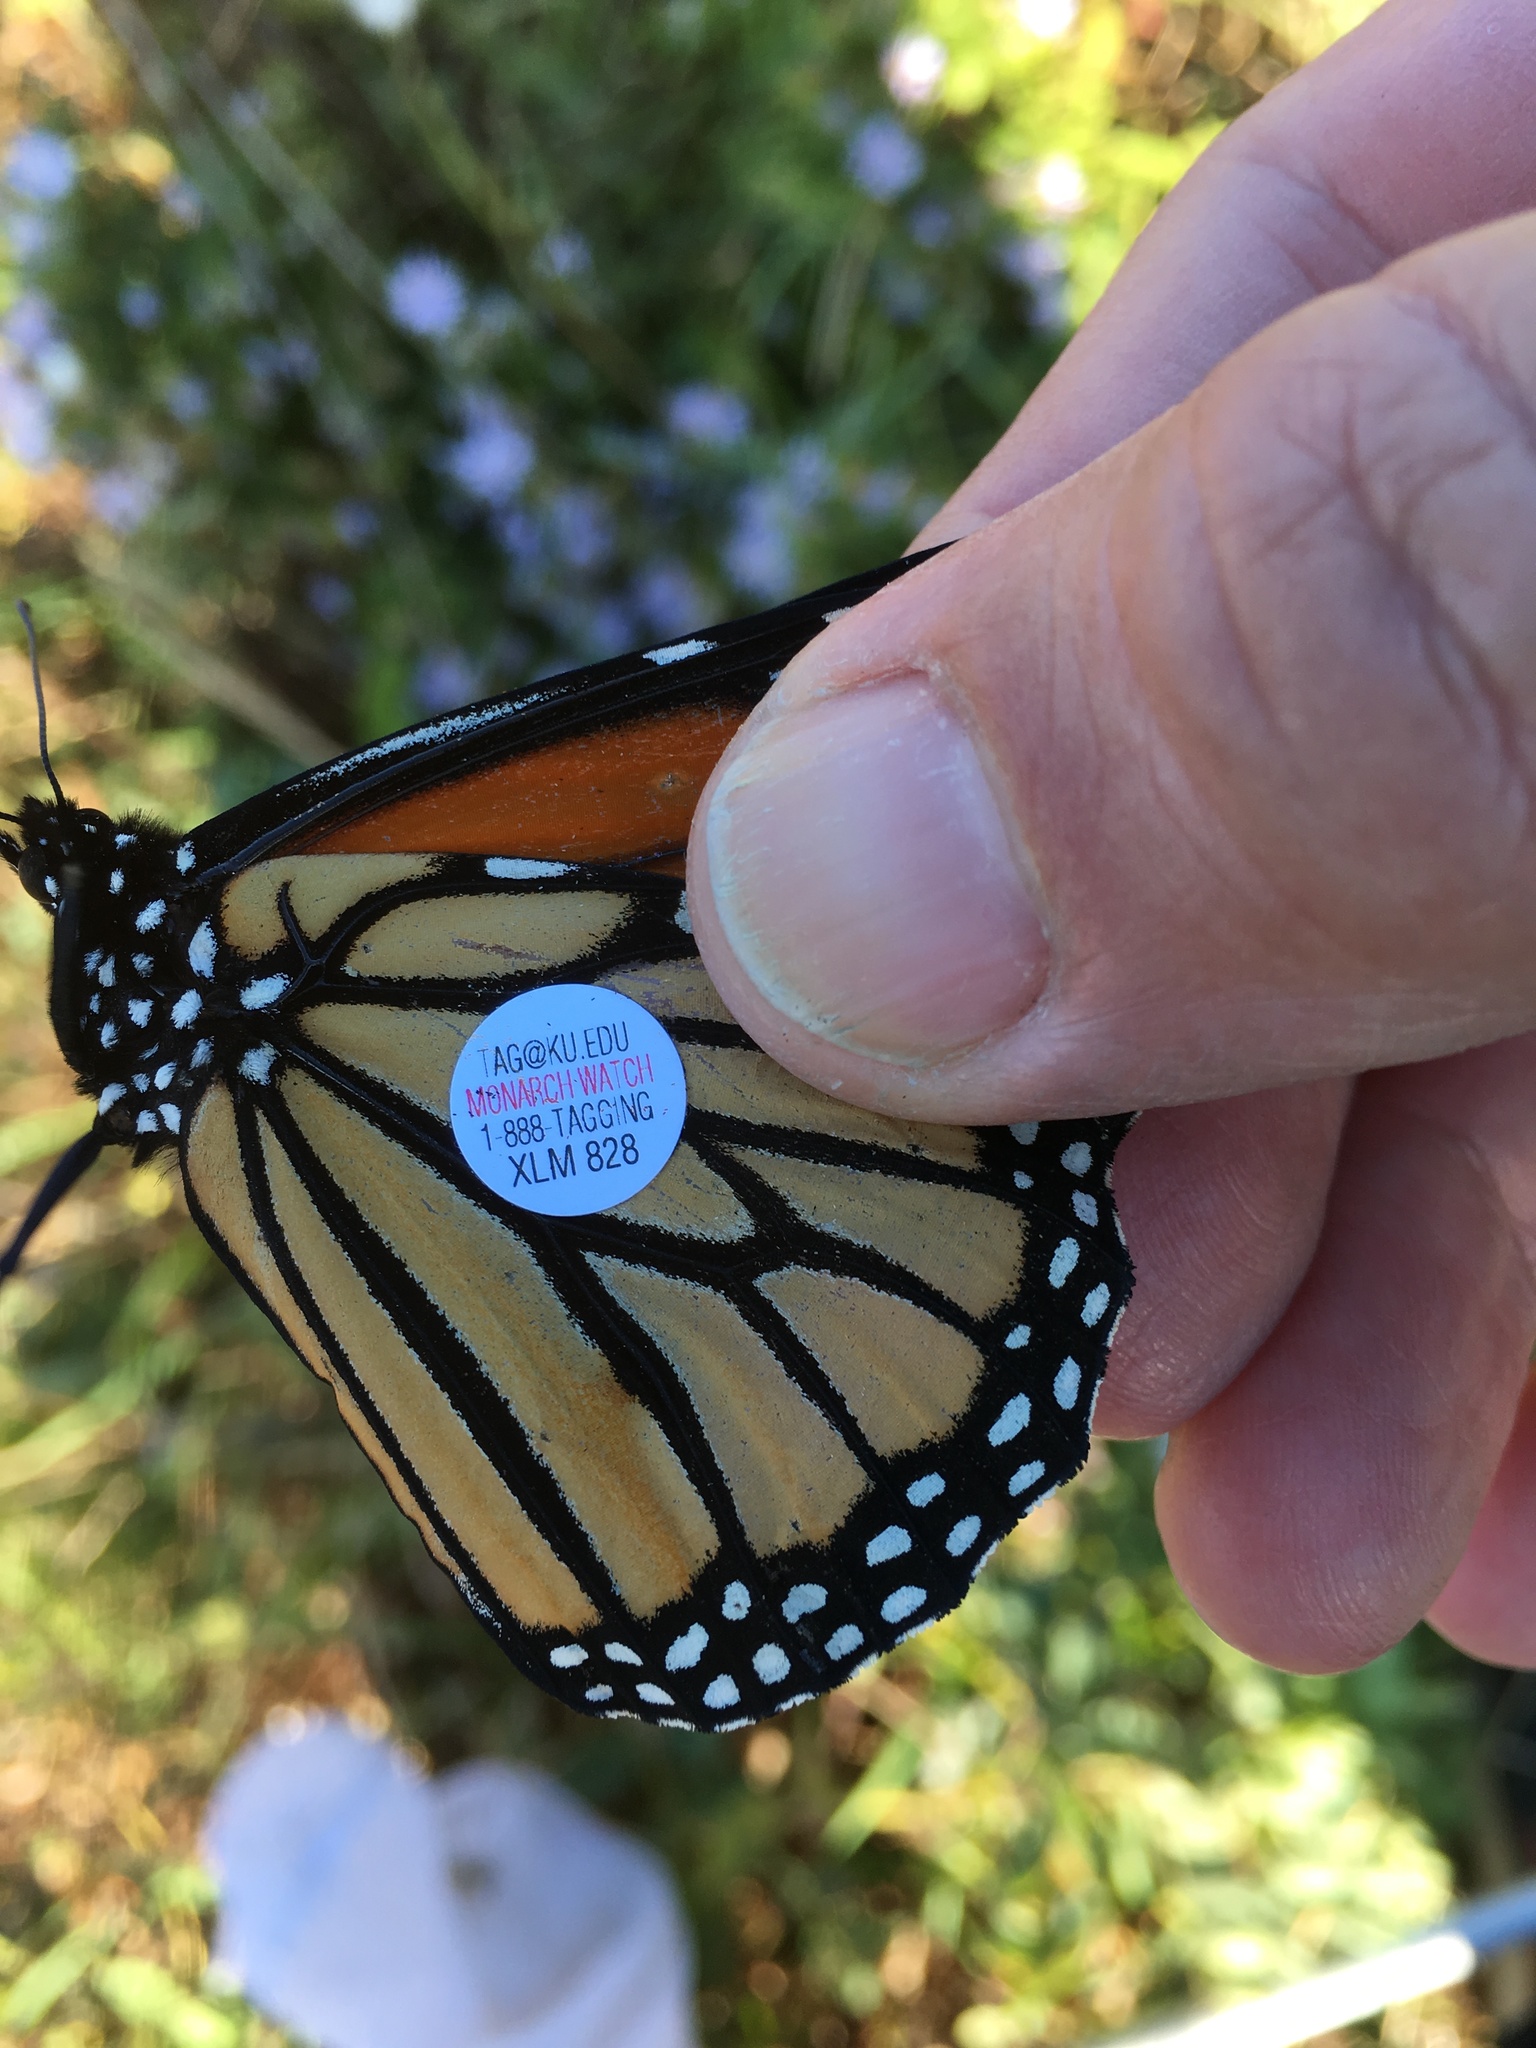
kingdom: Animalia
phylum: Arthropoda
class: Insecta
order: Lepidoptera
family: Nymphalidae
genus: Danaus
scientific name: Danaus plexippus
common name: Monarch
